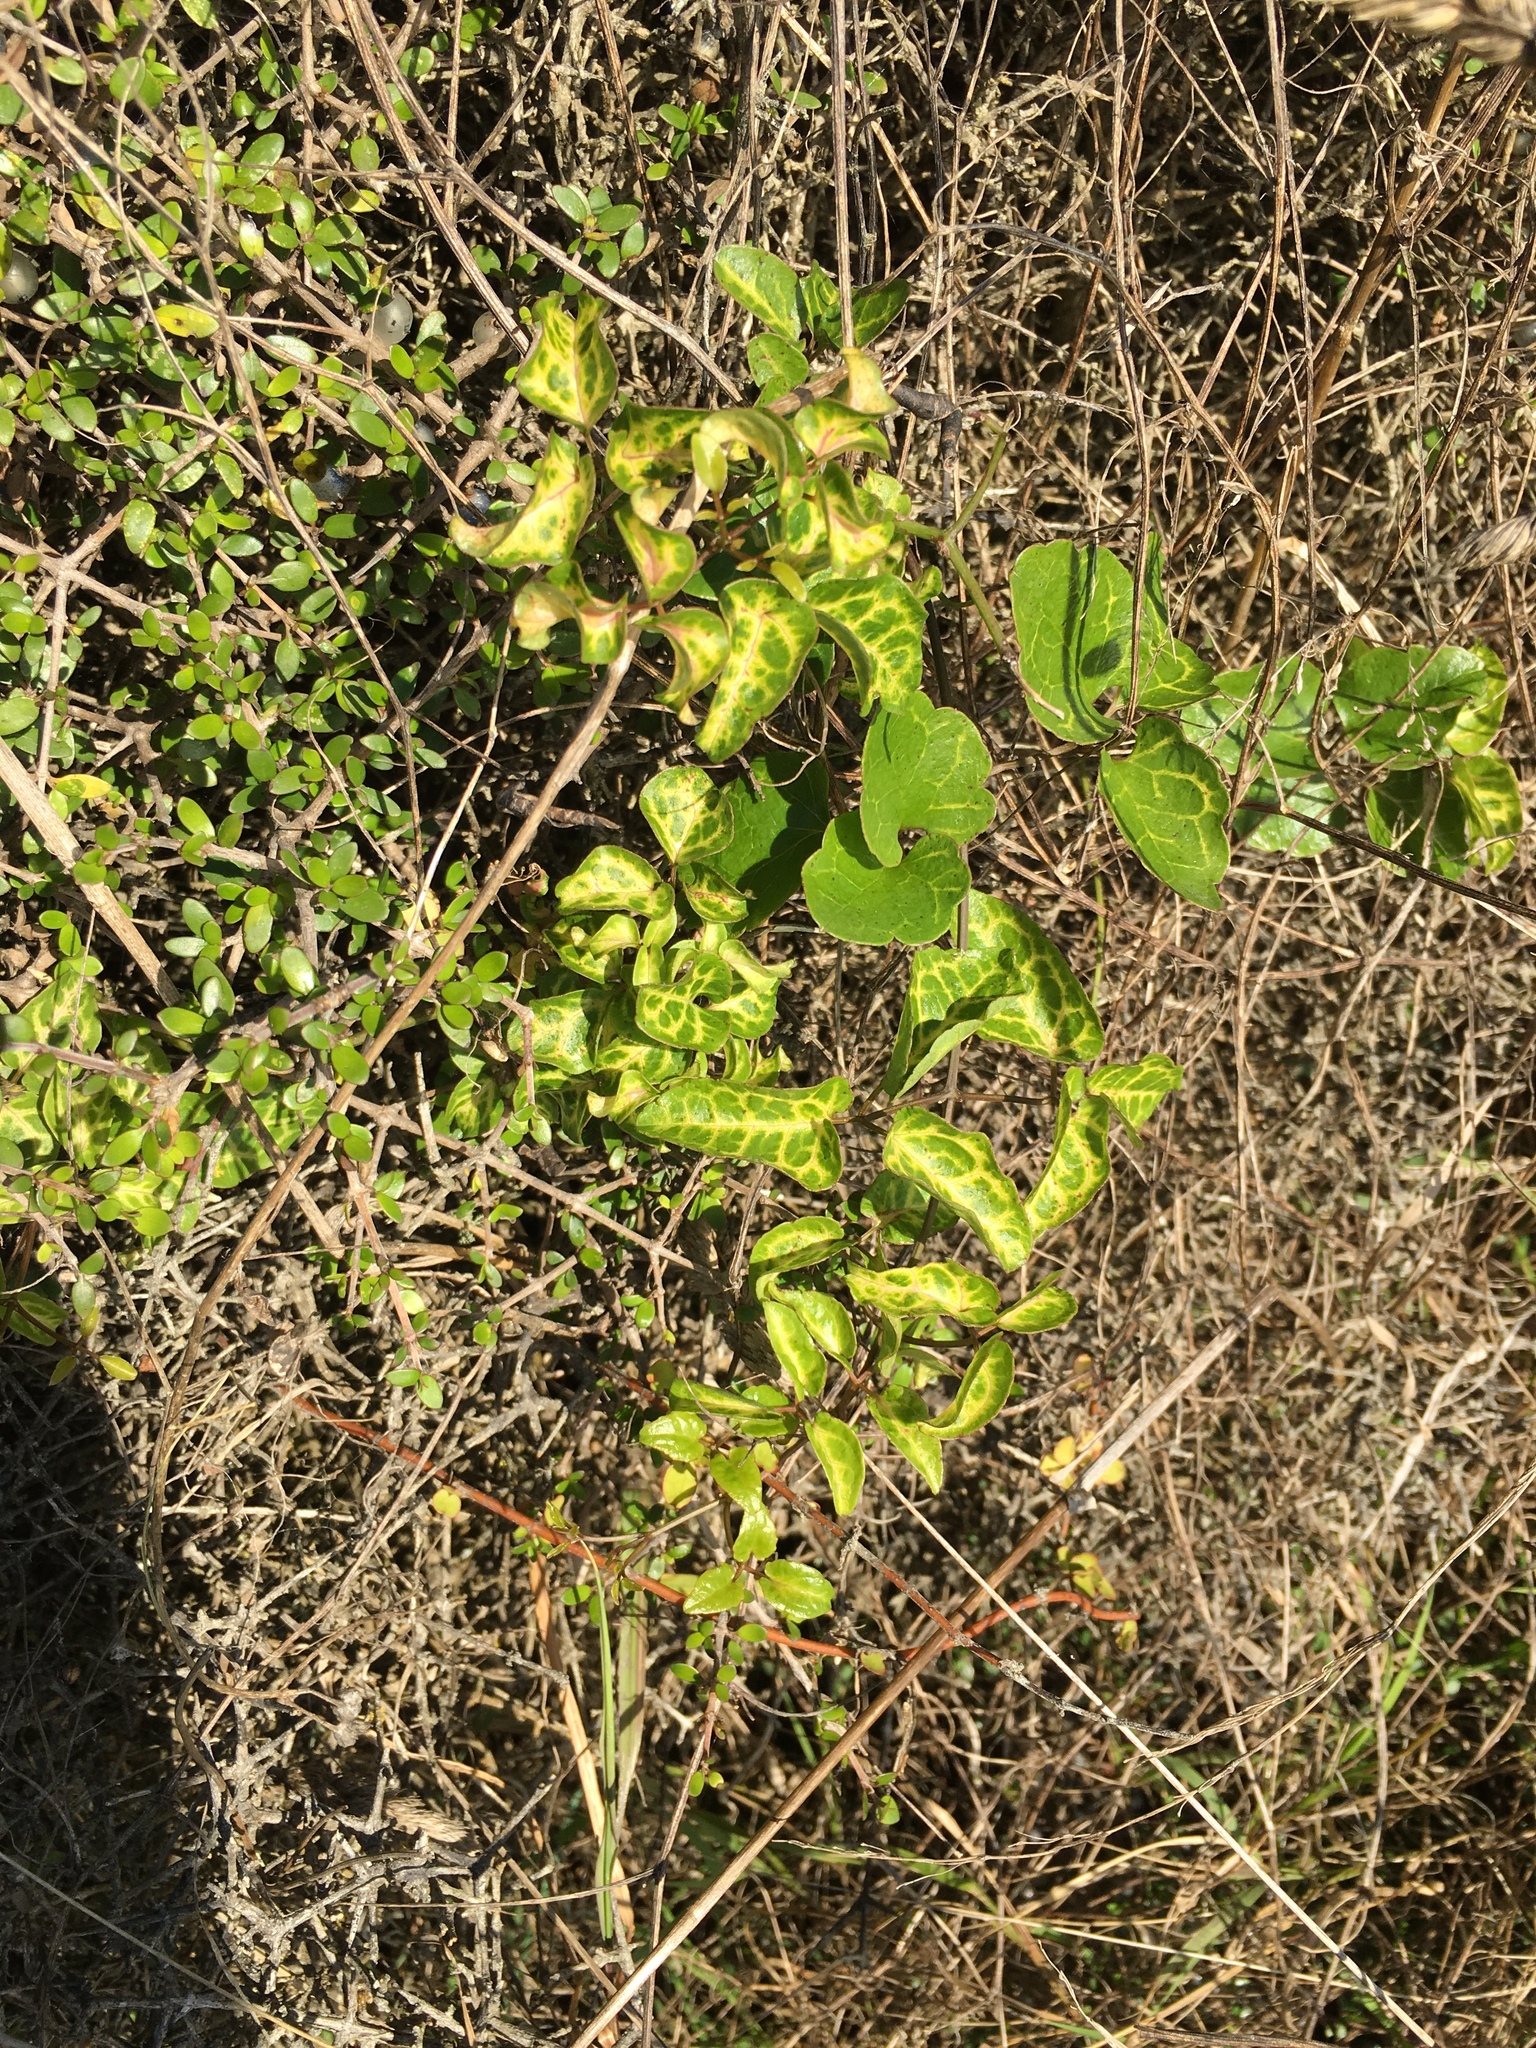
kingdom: Plantae
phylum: Tracheophyta
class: Magnoliopsida
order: Ranunculales
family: Ranunculaceae
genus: Clematis
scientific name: Clematis forsteri
